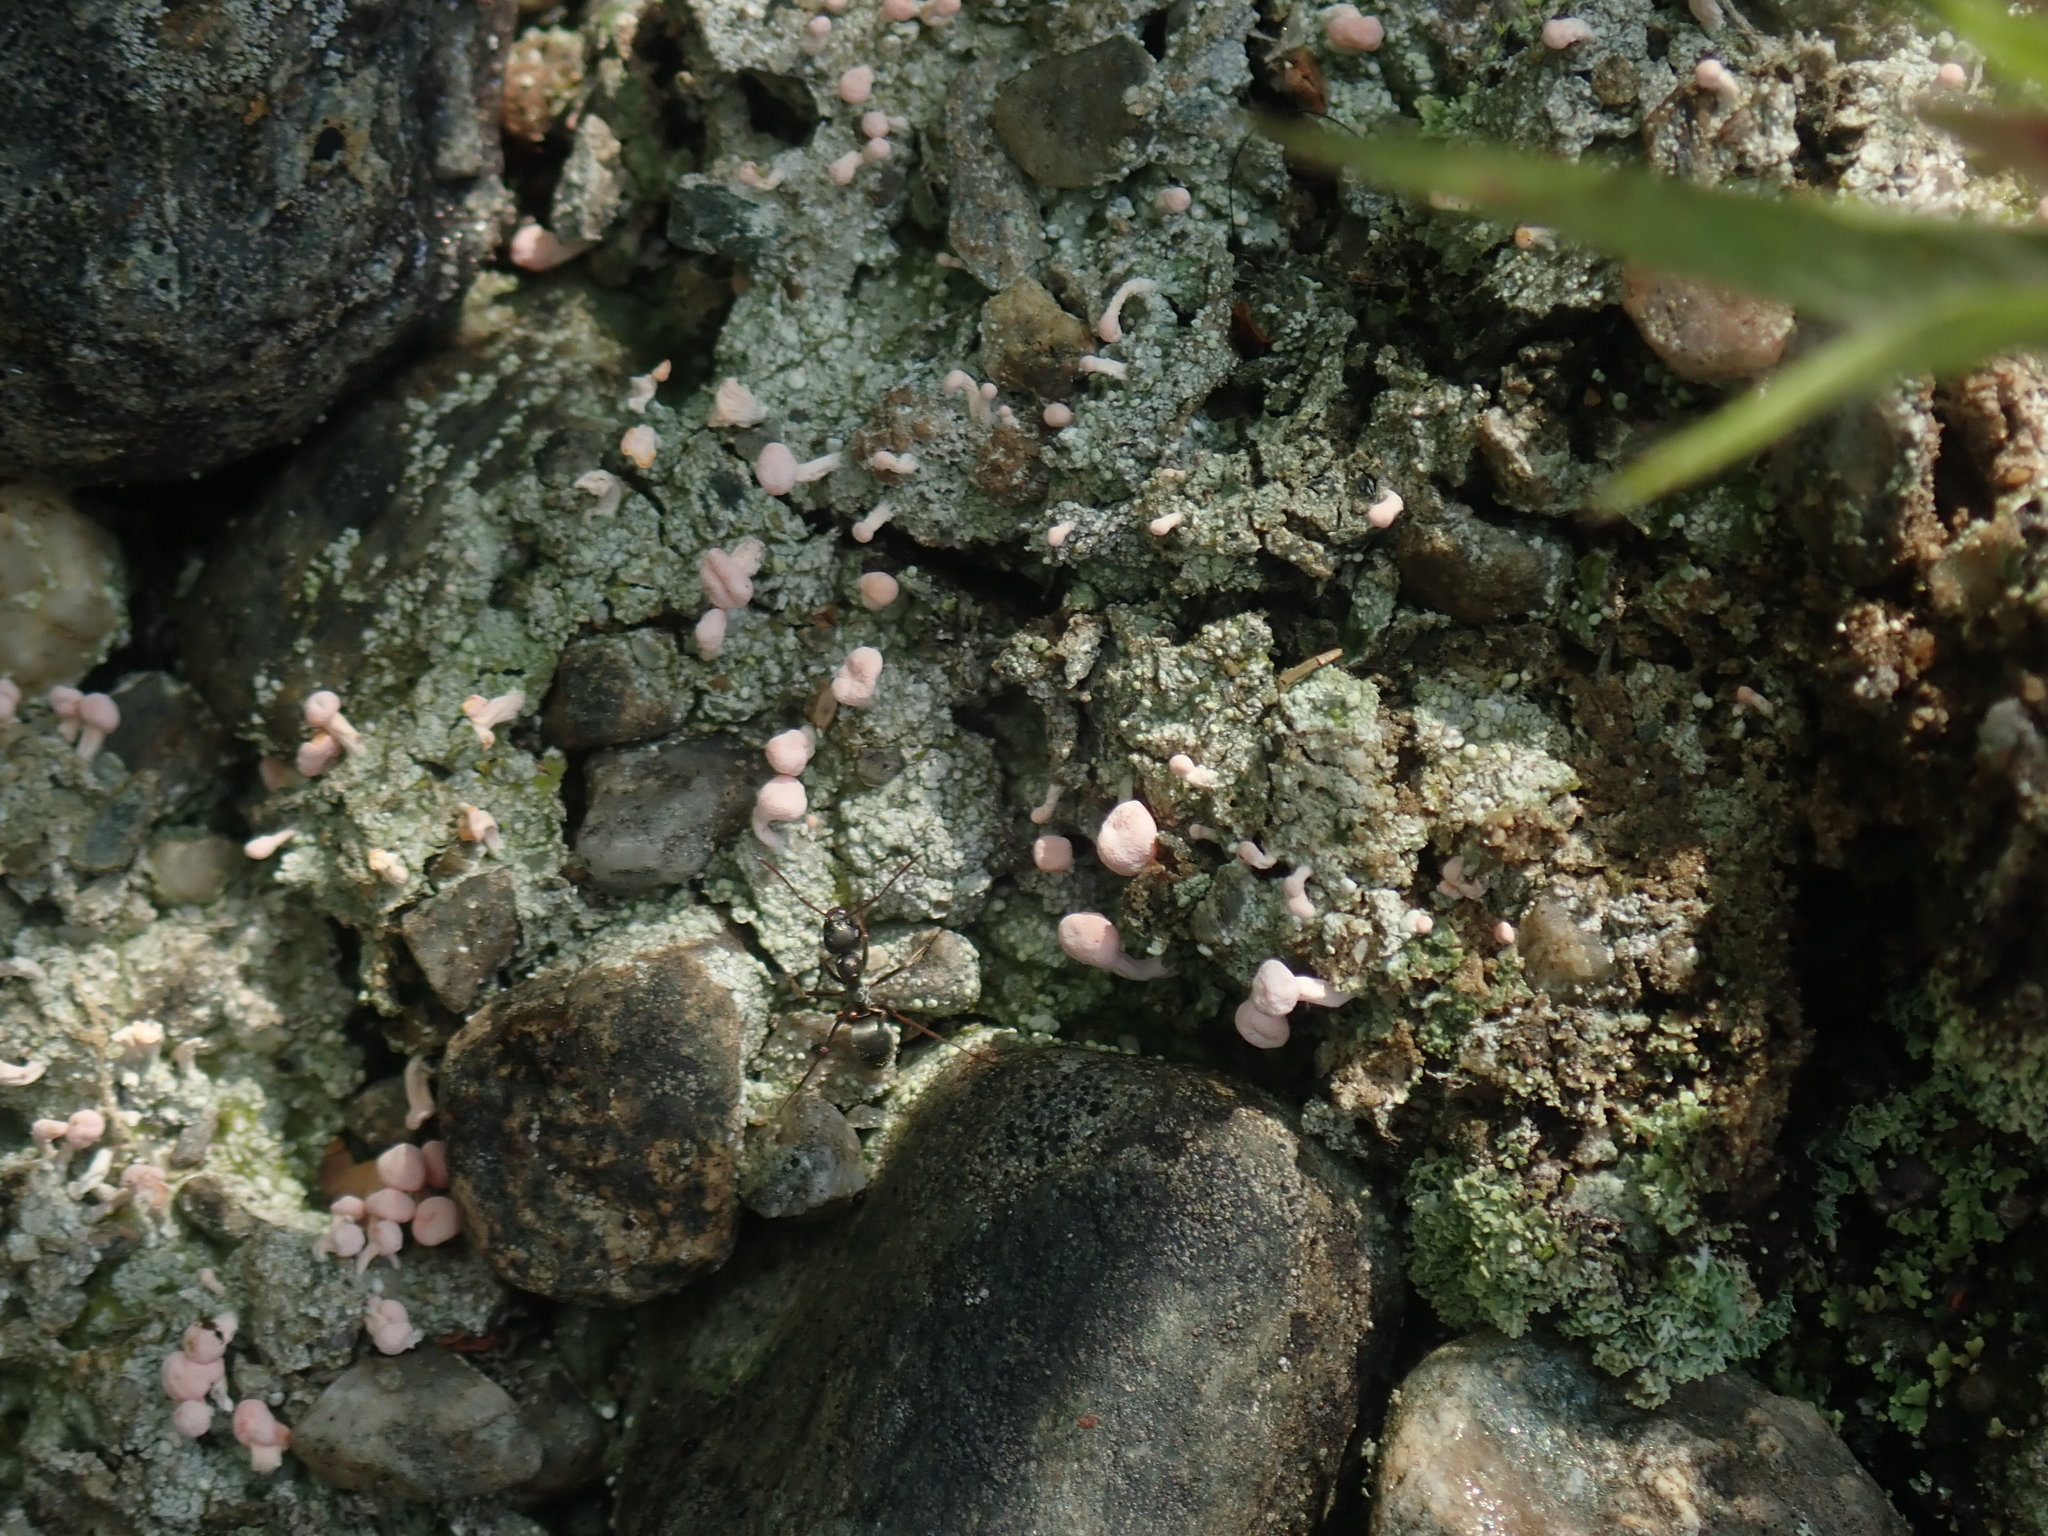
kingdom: Fungi
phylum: Ascomycota
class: Lecanoromycetes
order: Pertusariales
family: Icmadophilaceae
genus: Dibaeis
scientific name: Dibaeis baeomyces
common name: Pink earth lichen
